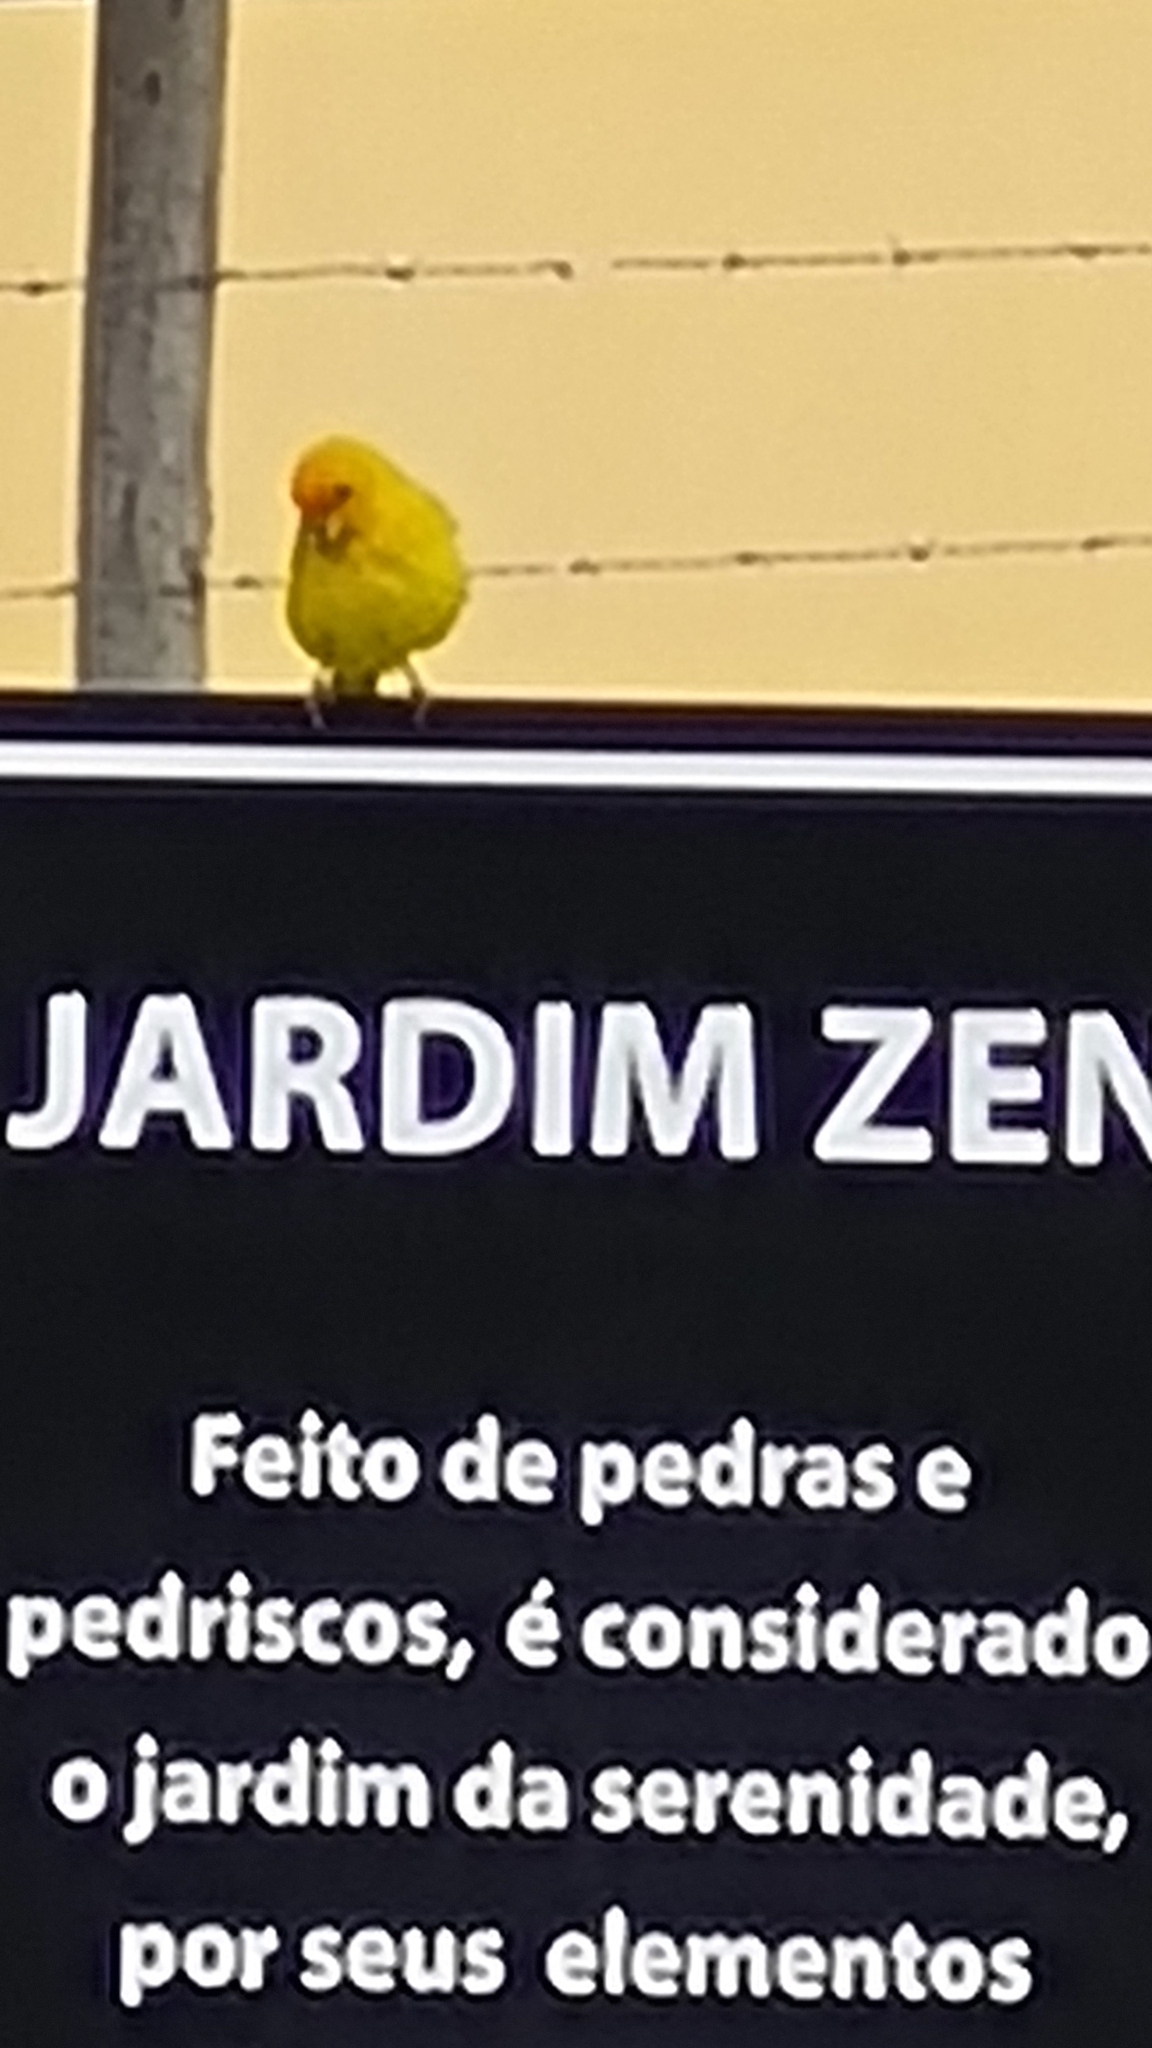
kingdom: Animalia
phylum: Chordata
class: Aves
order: Passeriformes
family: Thraupidae
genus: Sicalis
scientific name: Sicalis flaveola
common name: Saffron finch
